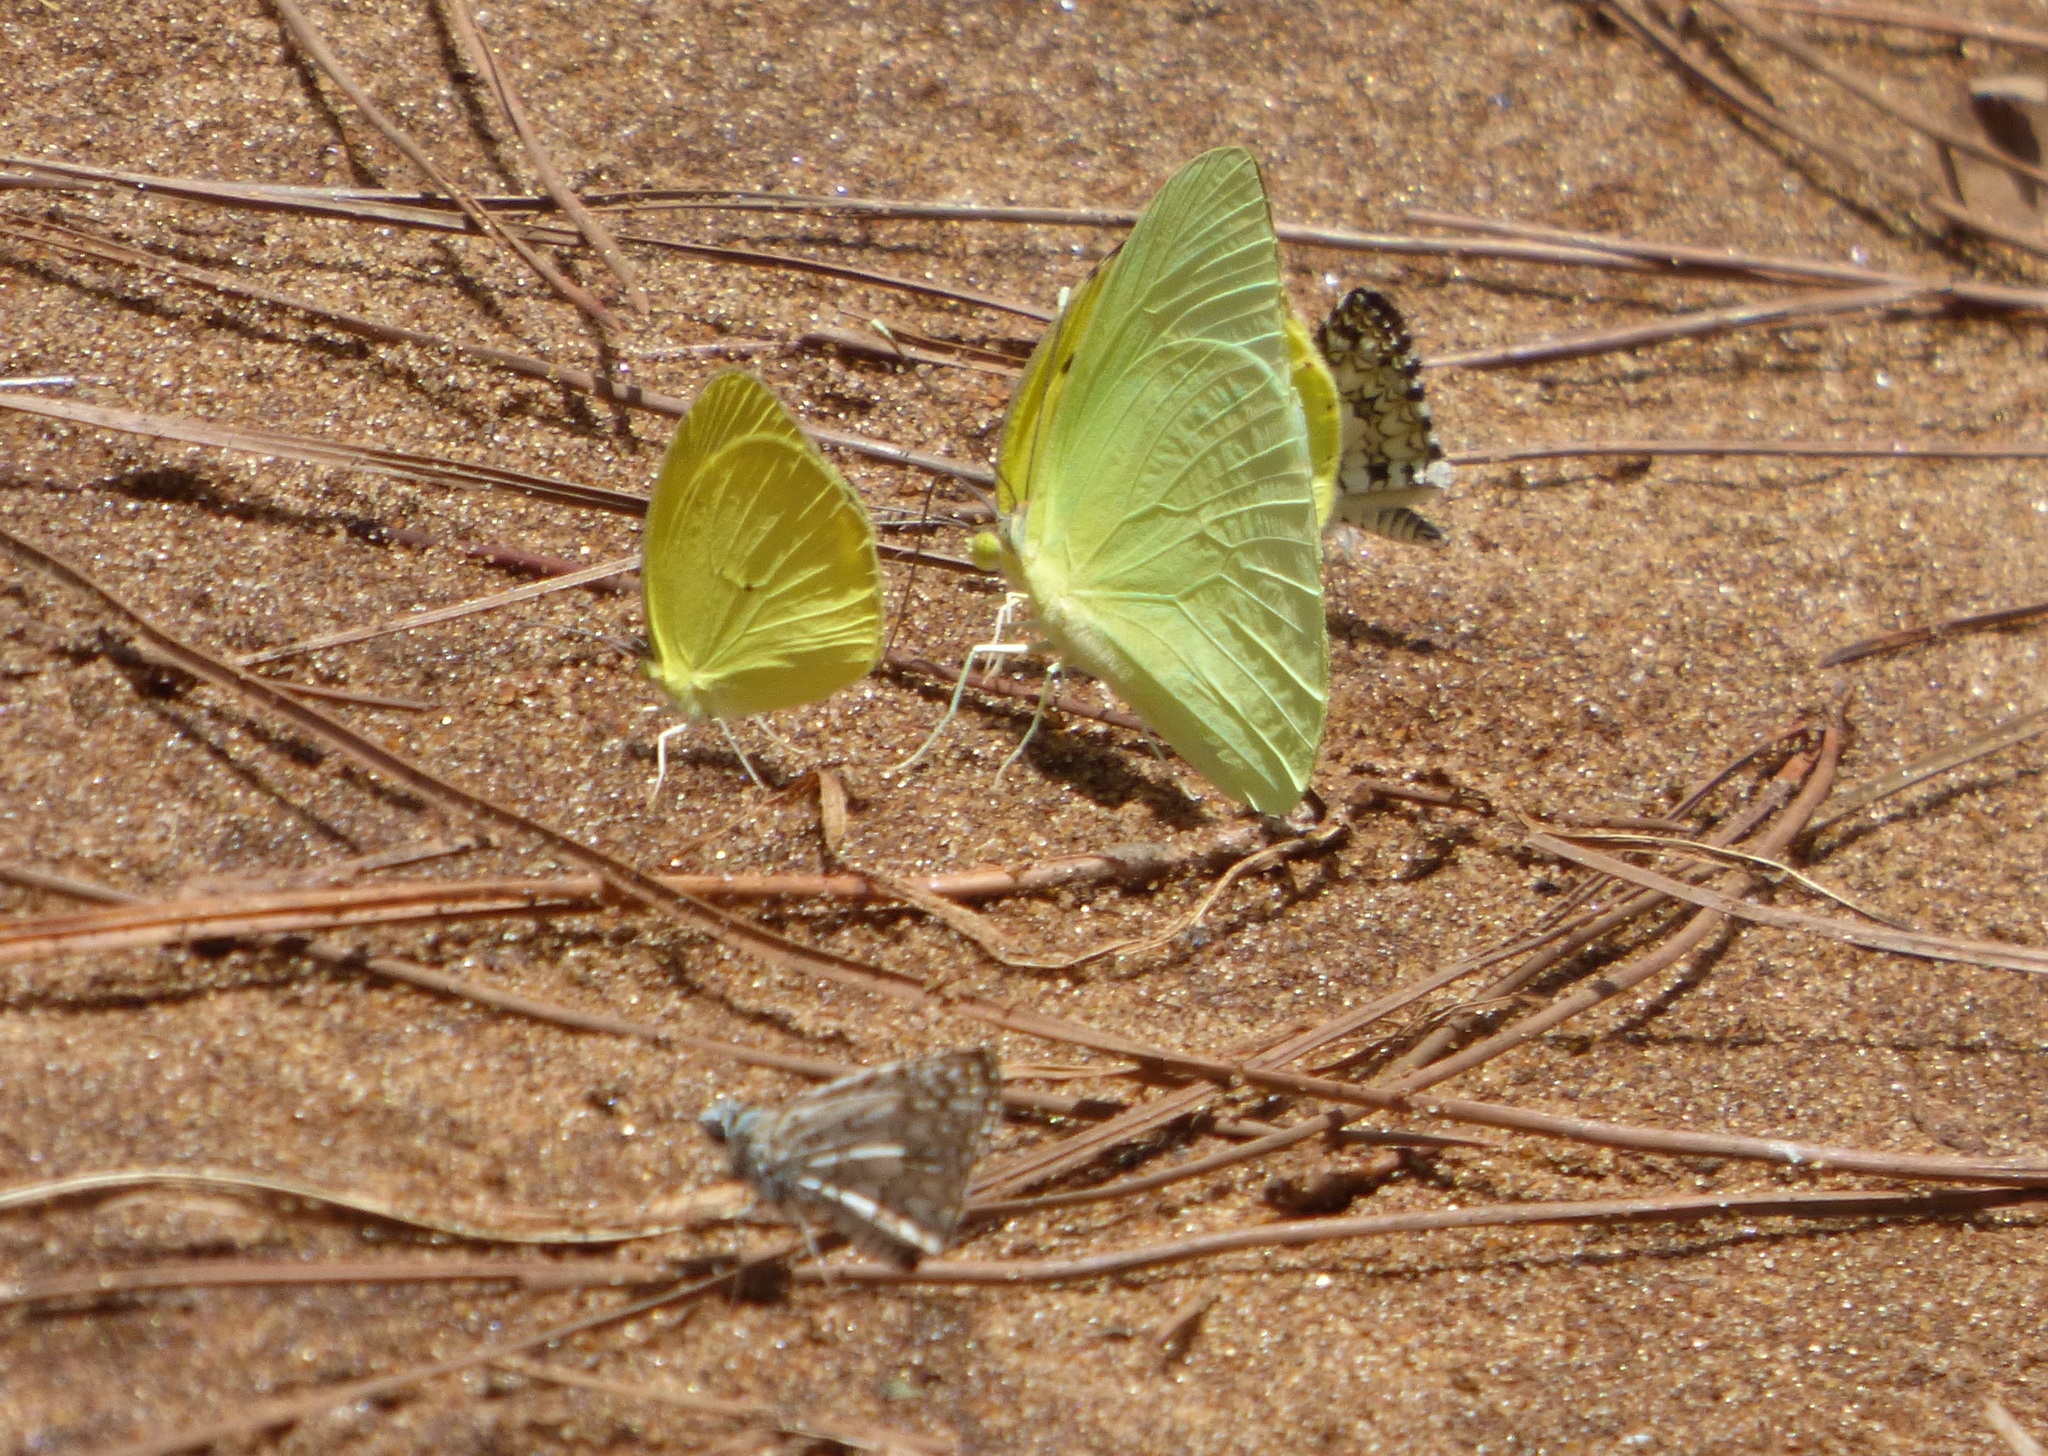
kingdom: Animalia
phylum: Arthropoda
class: Insecta
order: Lepidoptera
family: Pieridae
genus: Aphrissa
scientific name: Aphrissa statira
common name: Statira sulphur
